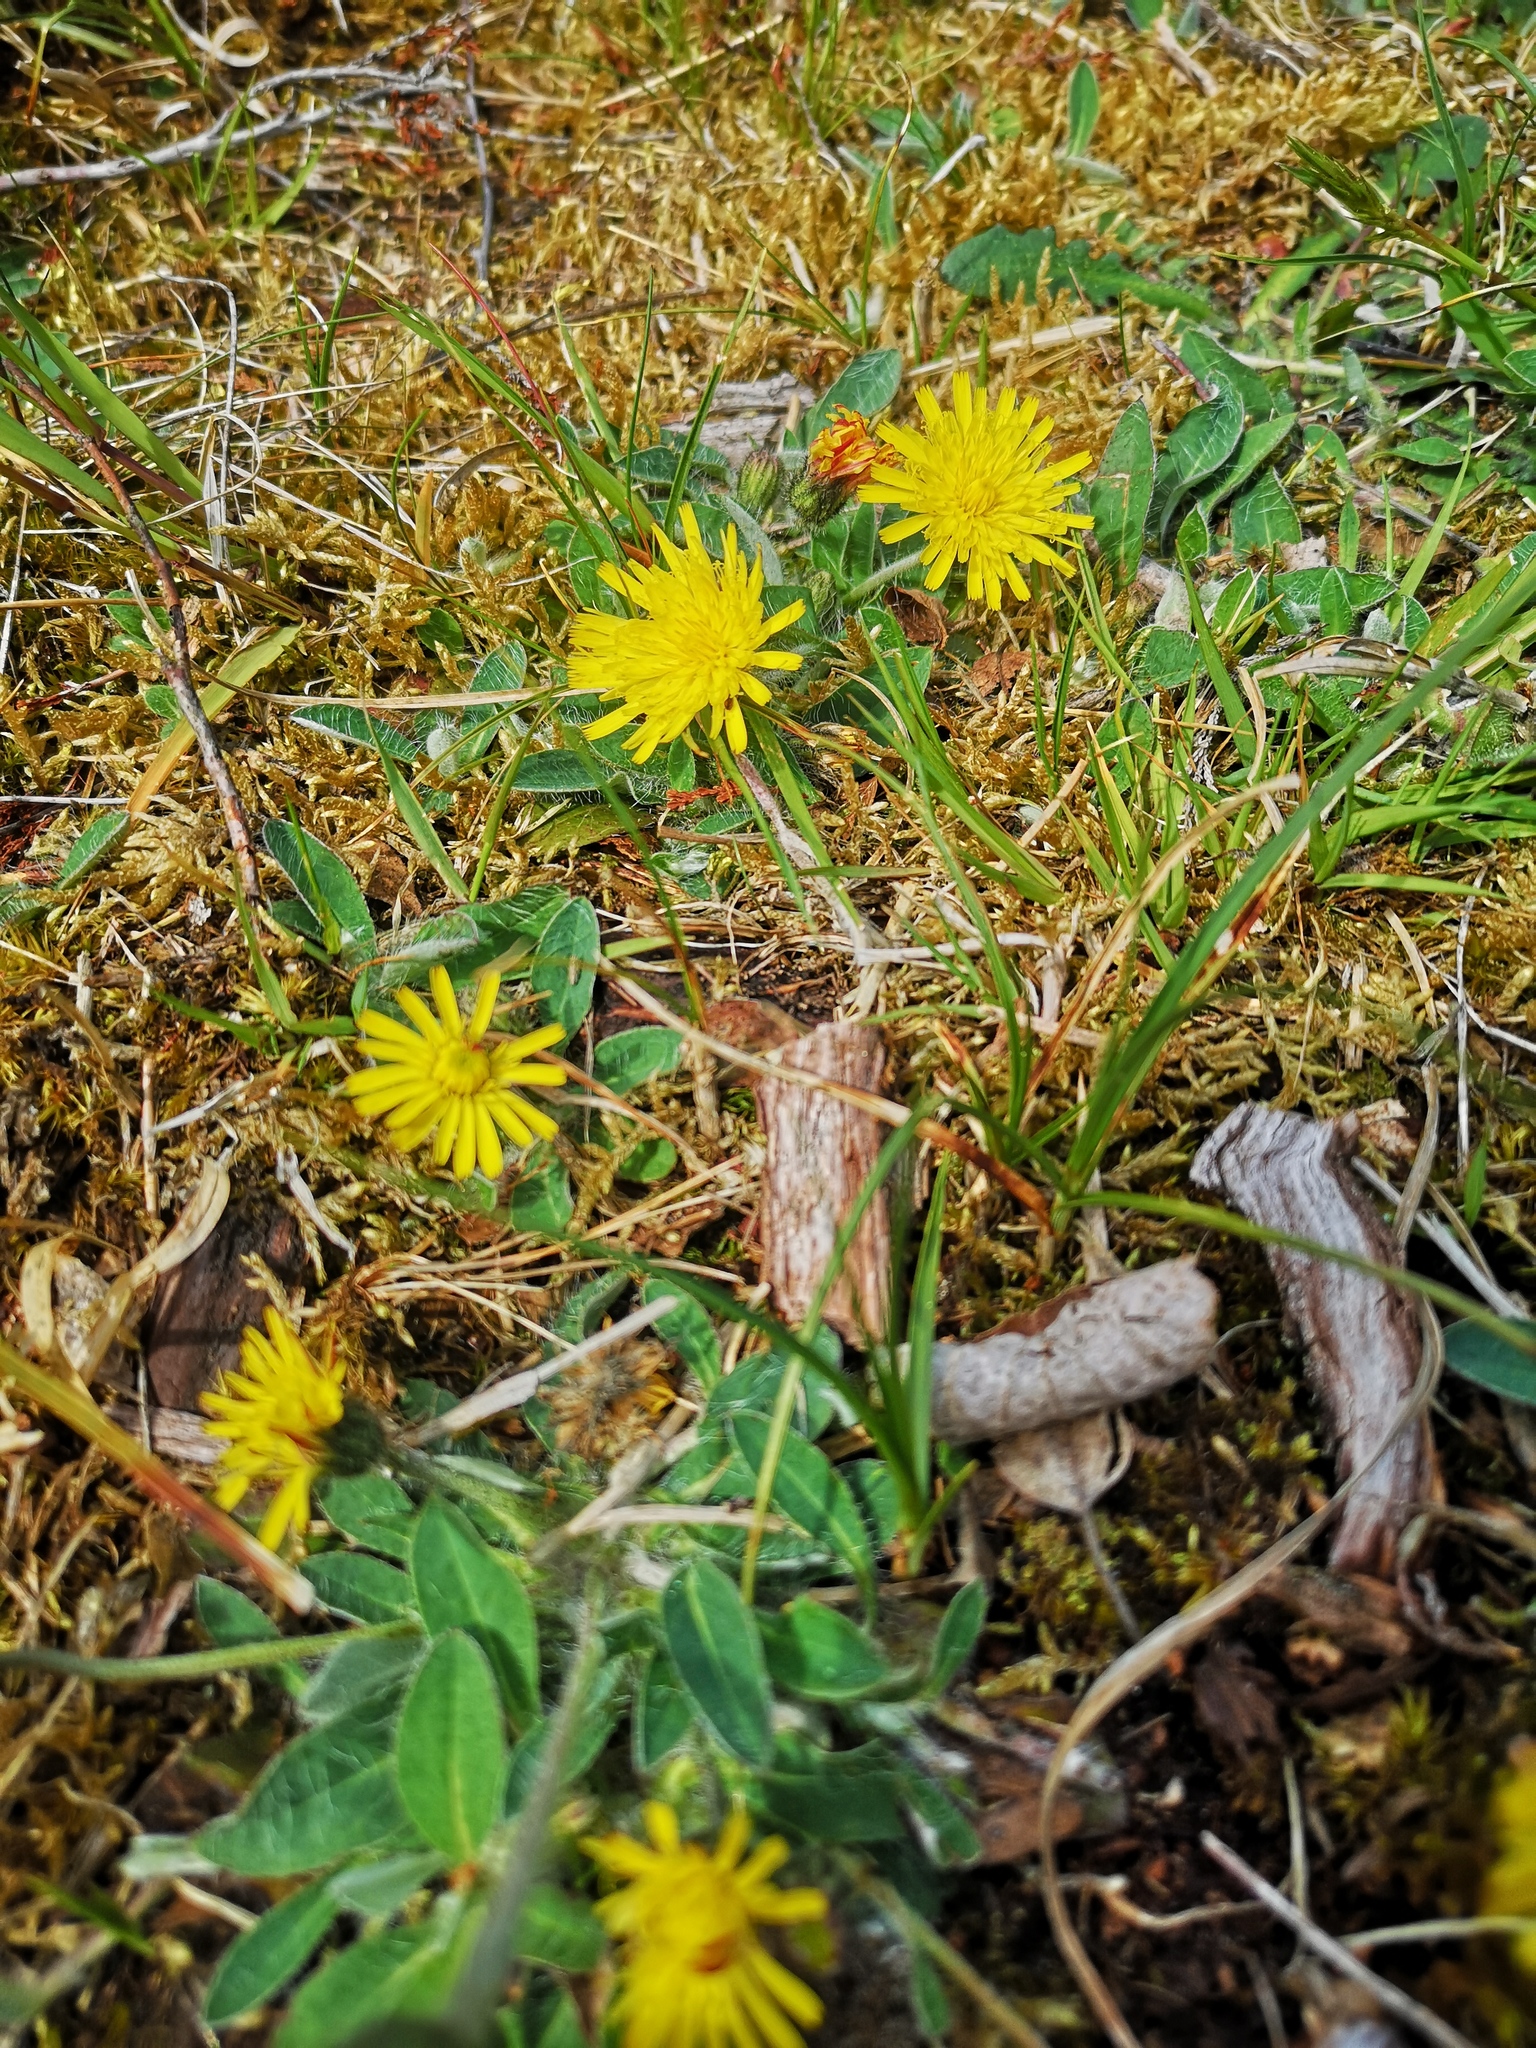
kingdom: Plantae
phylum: Tracheophyta
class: Magnoliopsida
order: Asterales
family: Asteraceae
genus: Pilosella
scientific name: Pilosella officinarum
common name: Mouse-ear hawkweed
